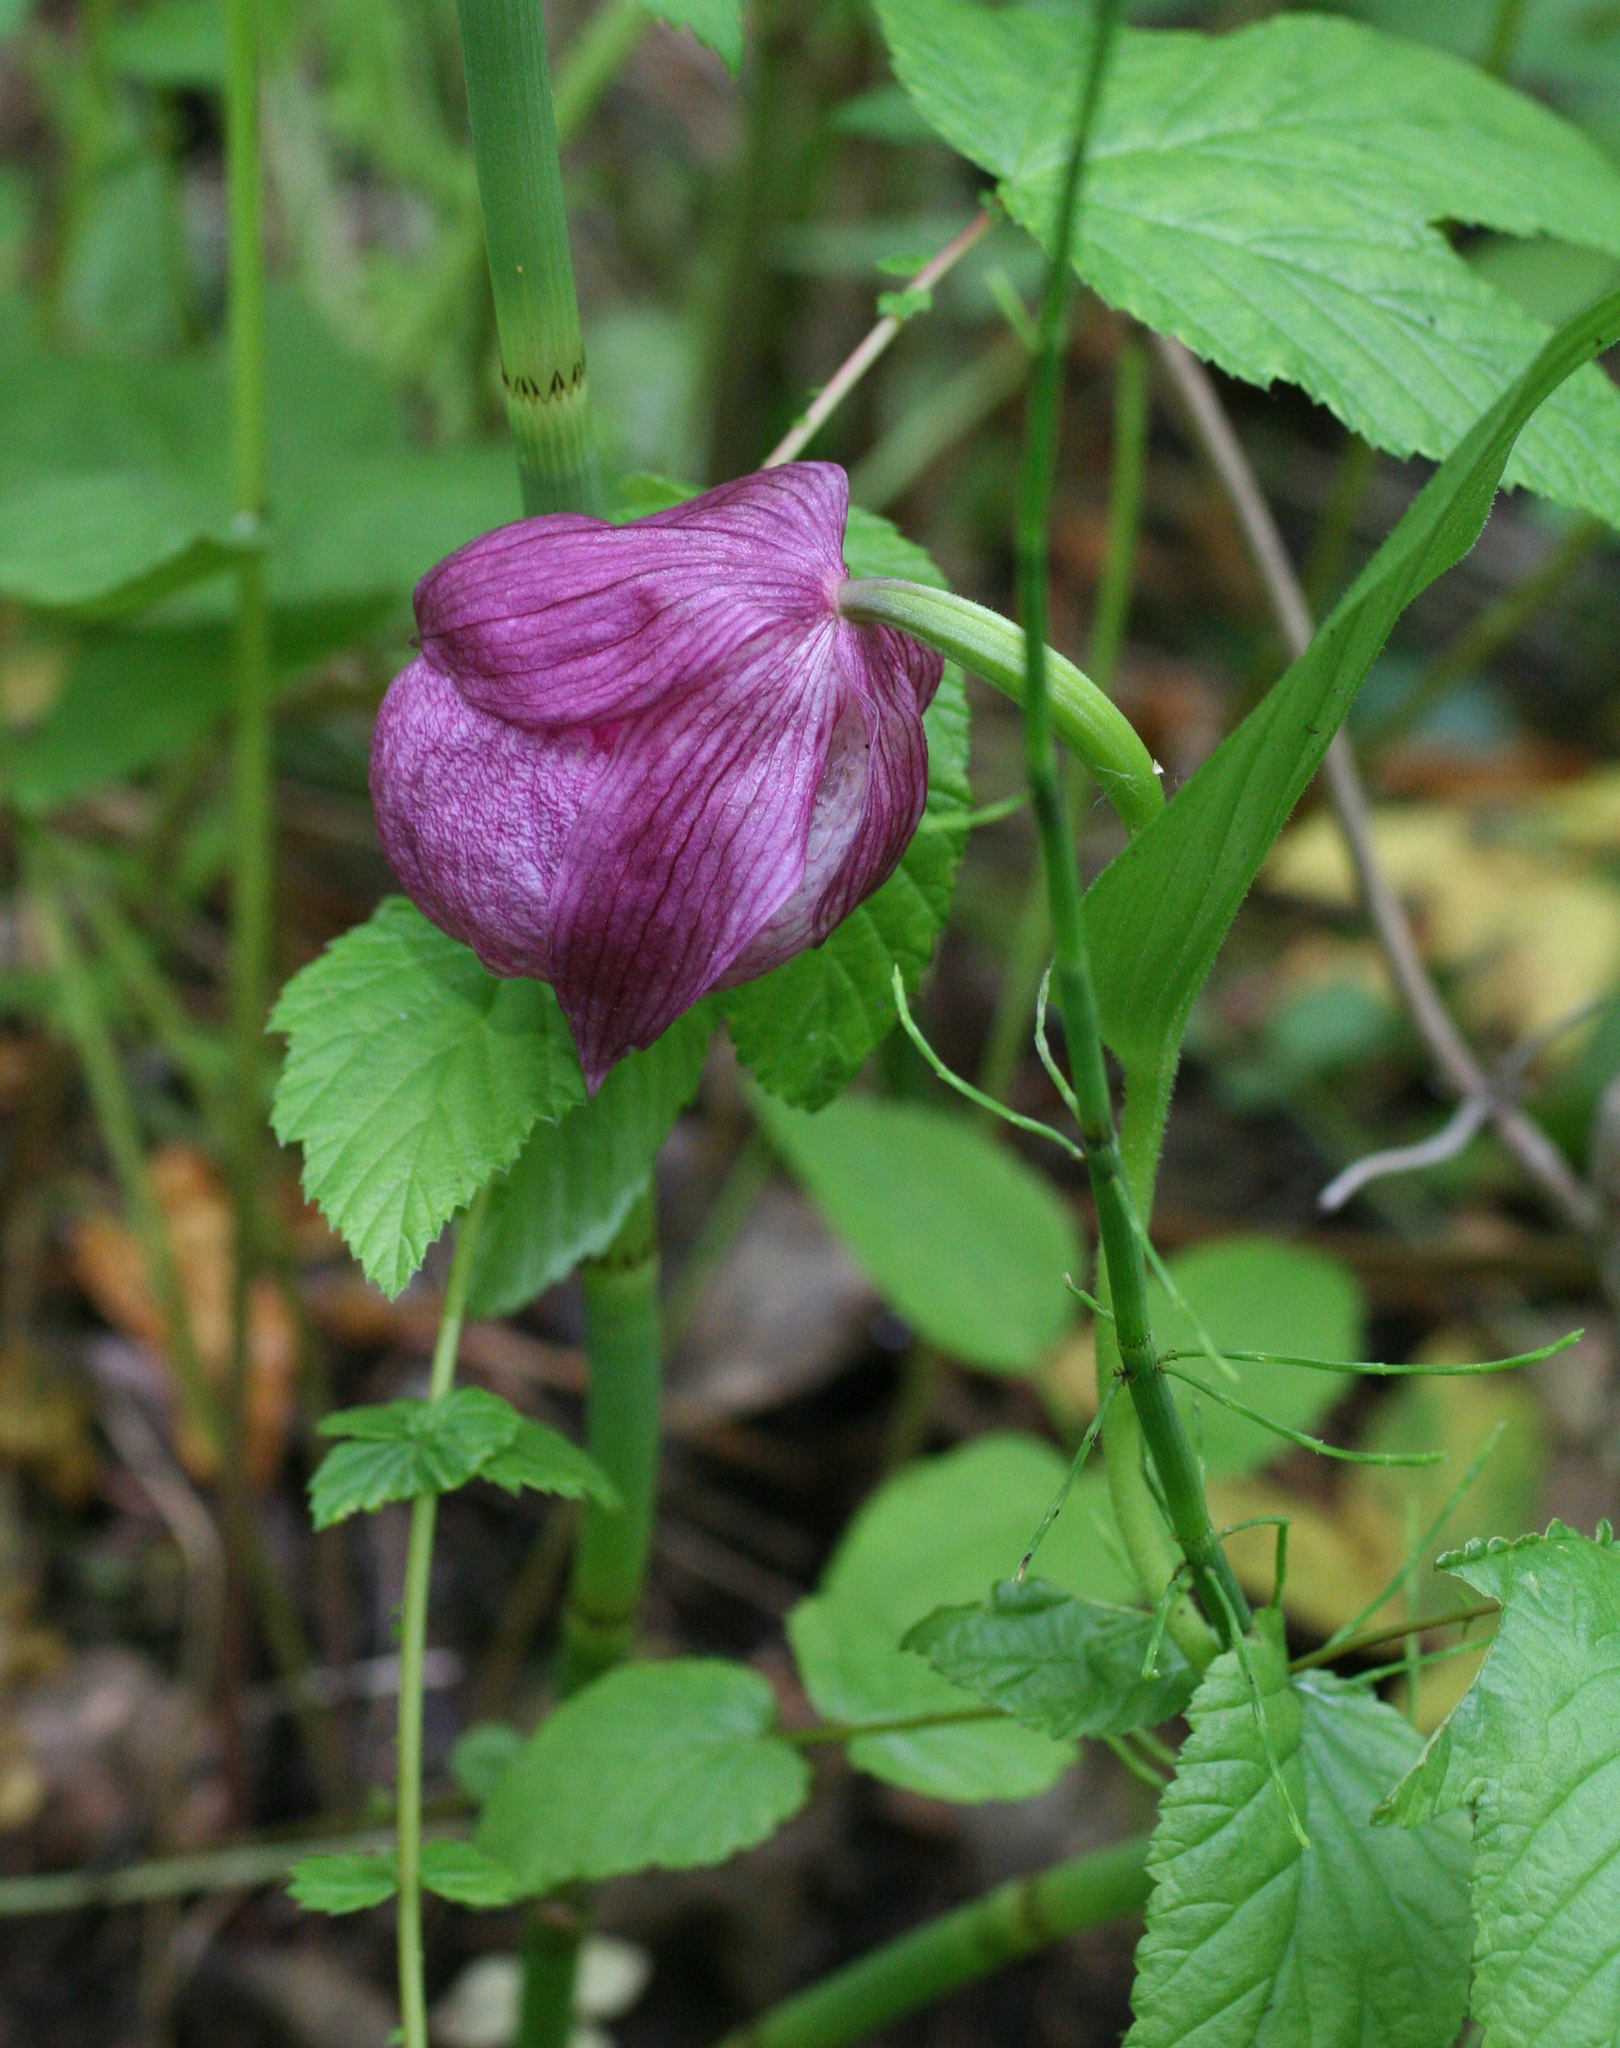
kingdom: Plantae
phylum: Tracheophyta
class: Liliopsida
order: Asparagales
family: Orchidaceae
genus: Cypripedium
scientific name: Cypripedium macranthos
